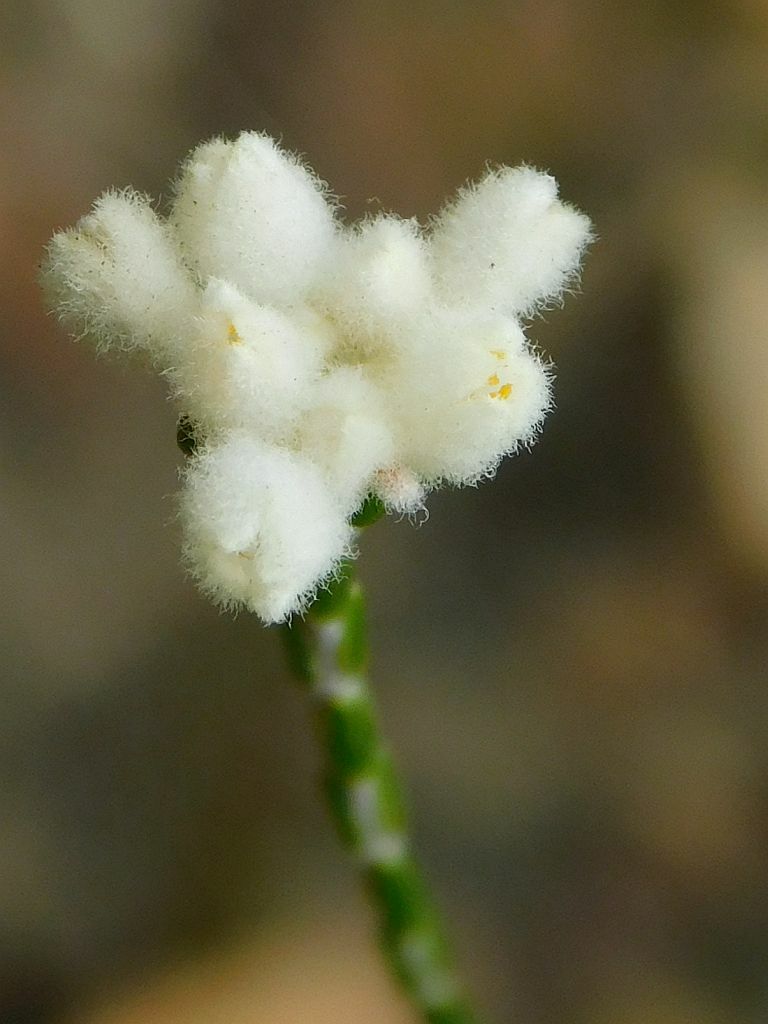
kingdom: Plantae
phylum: Tracheophyta
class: Magnoliopsida
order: Malvales
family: Thymelaeaceae
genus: Lachnaea
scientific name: Lachnaea greytonensis
